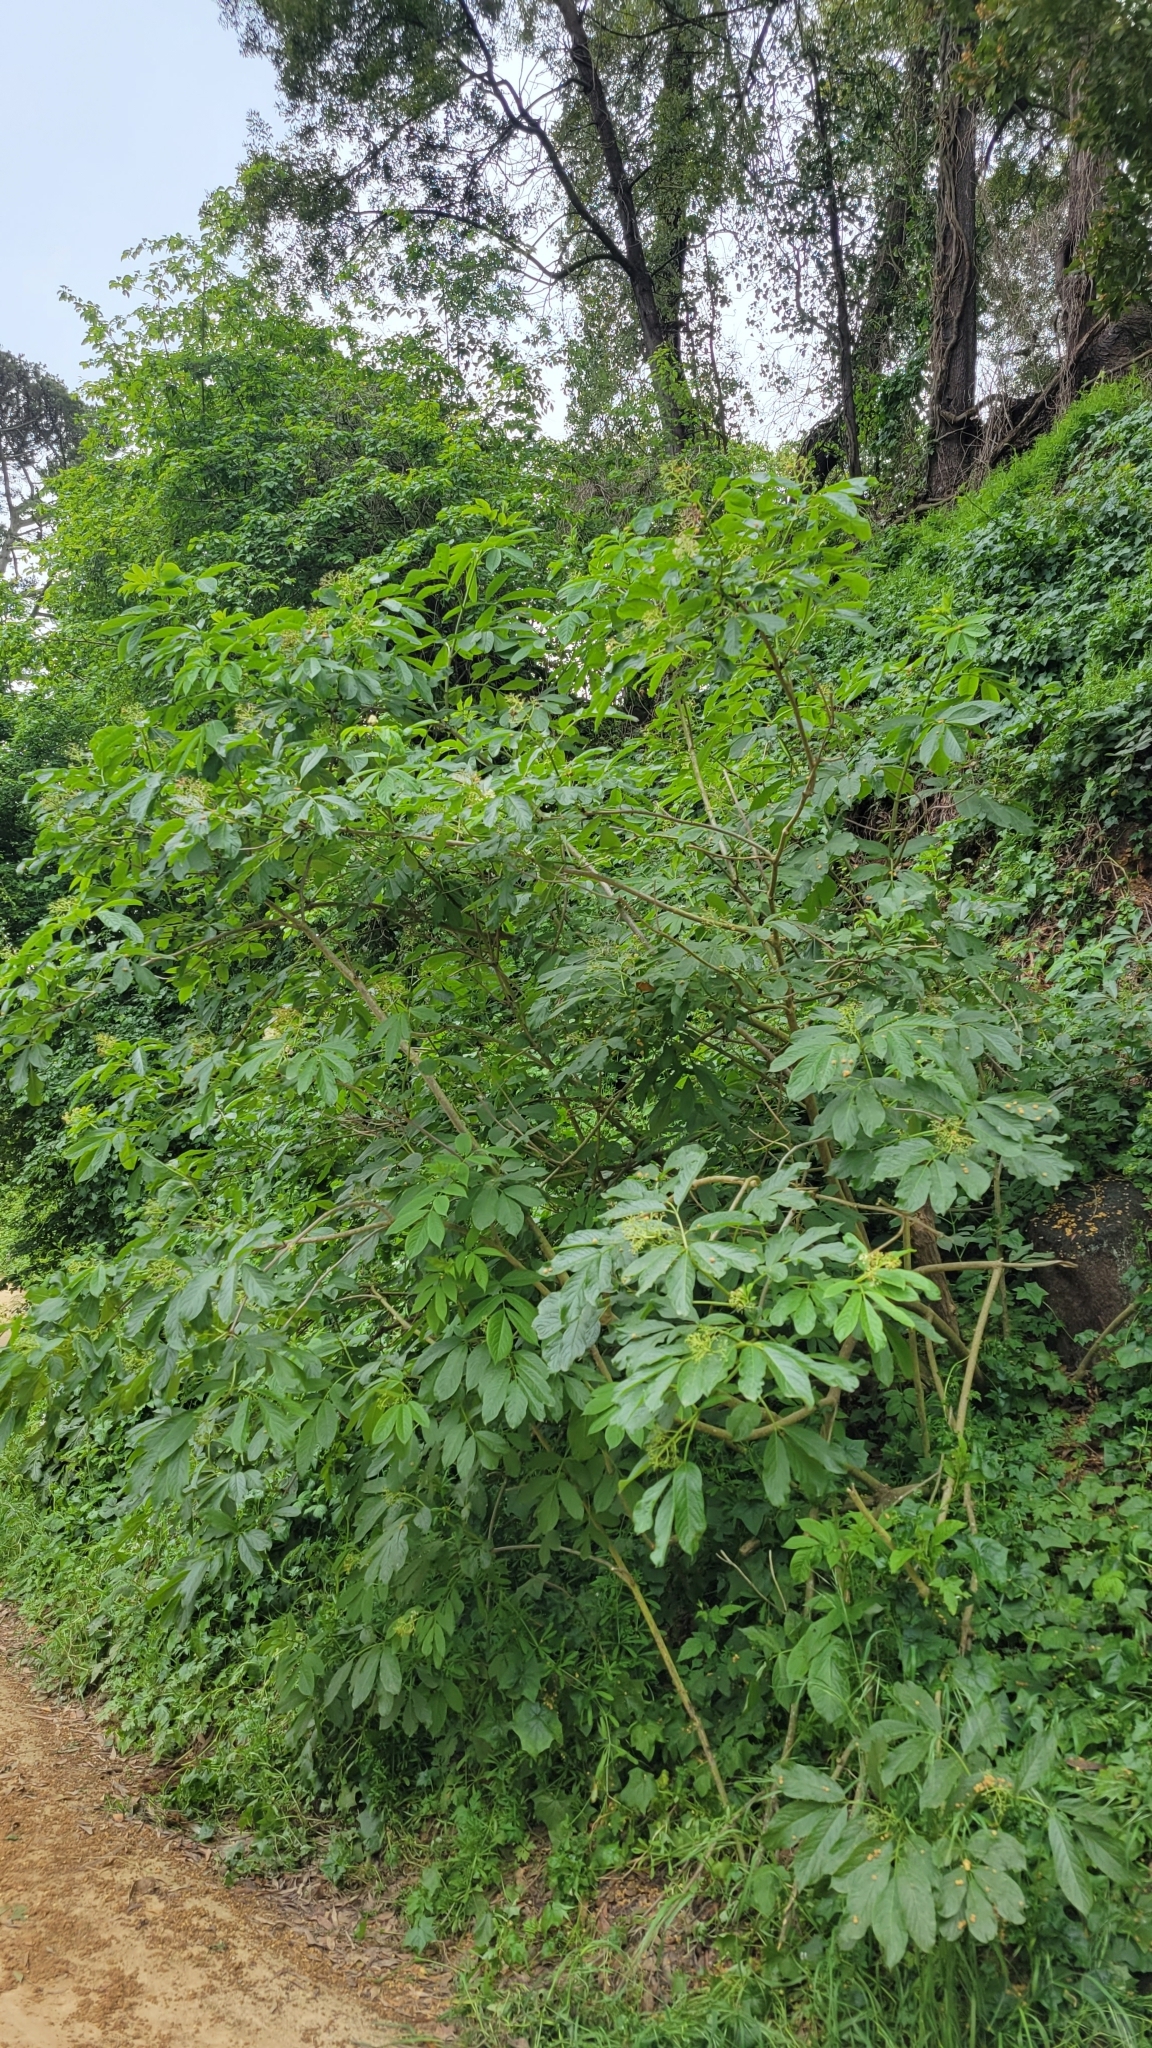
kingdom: Plantae
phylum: Tracheophyta
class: Magnoliopsida
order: Dipsacales
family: Viburnaceae
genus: Sambucus
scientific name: Sambucus racemosa
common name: Red-berried elder
